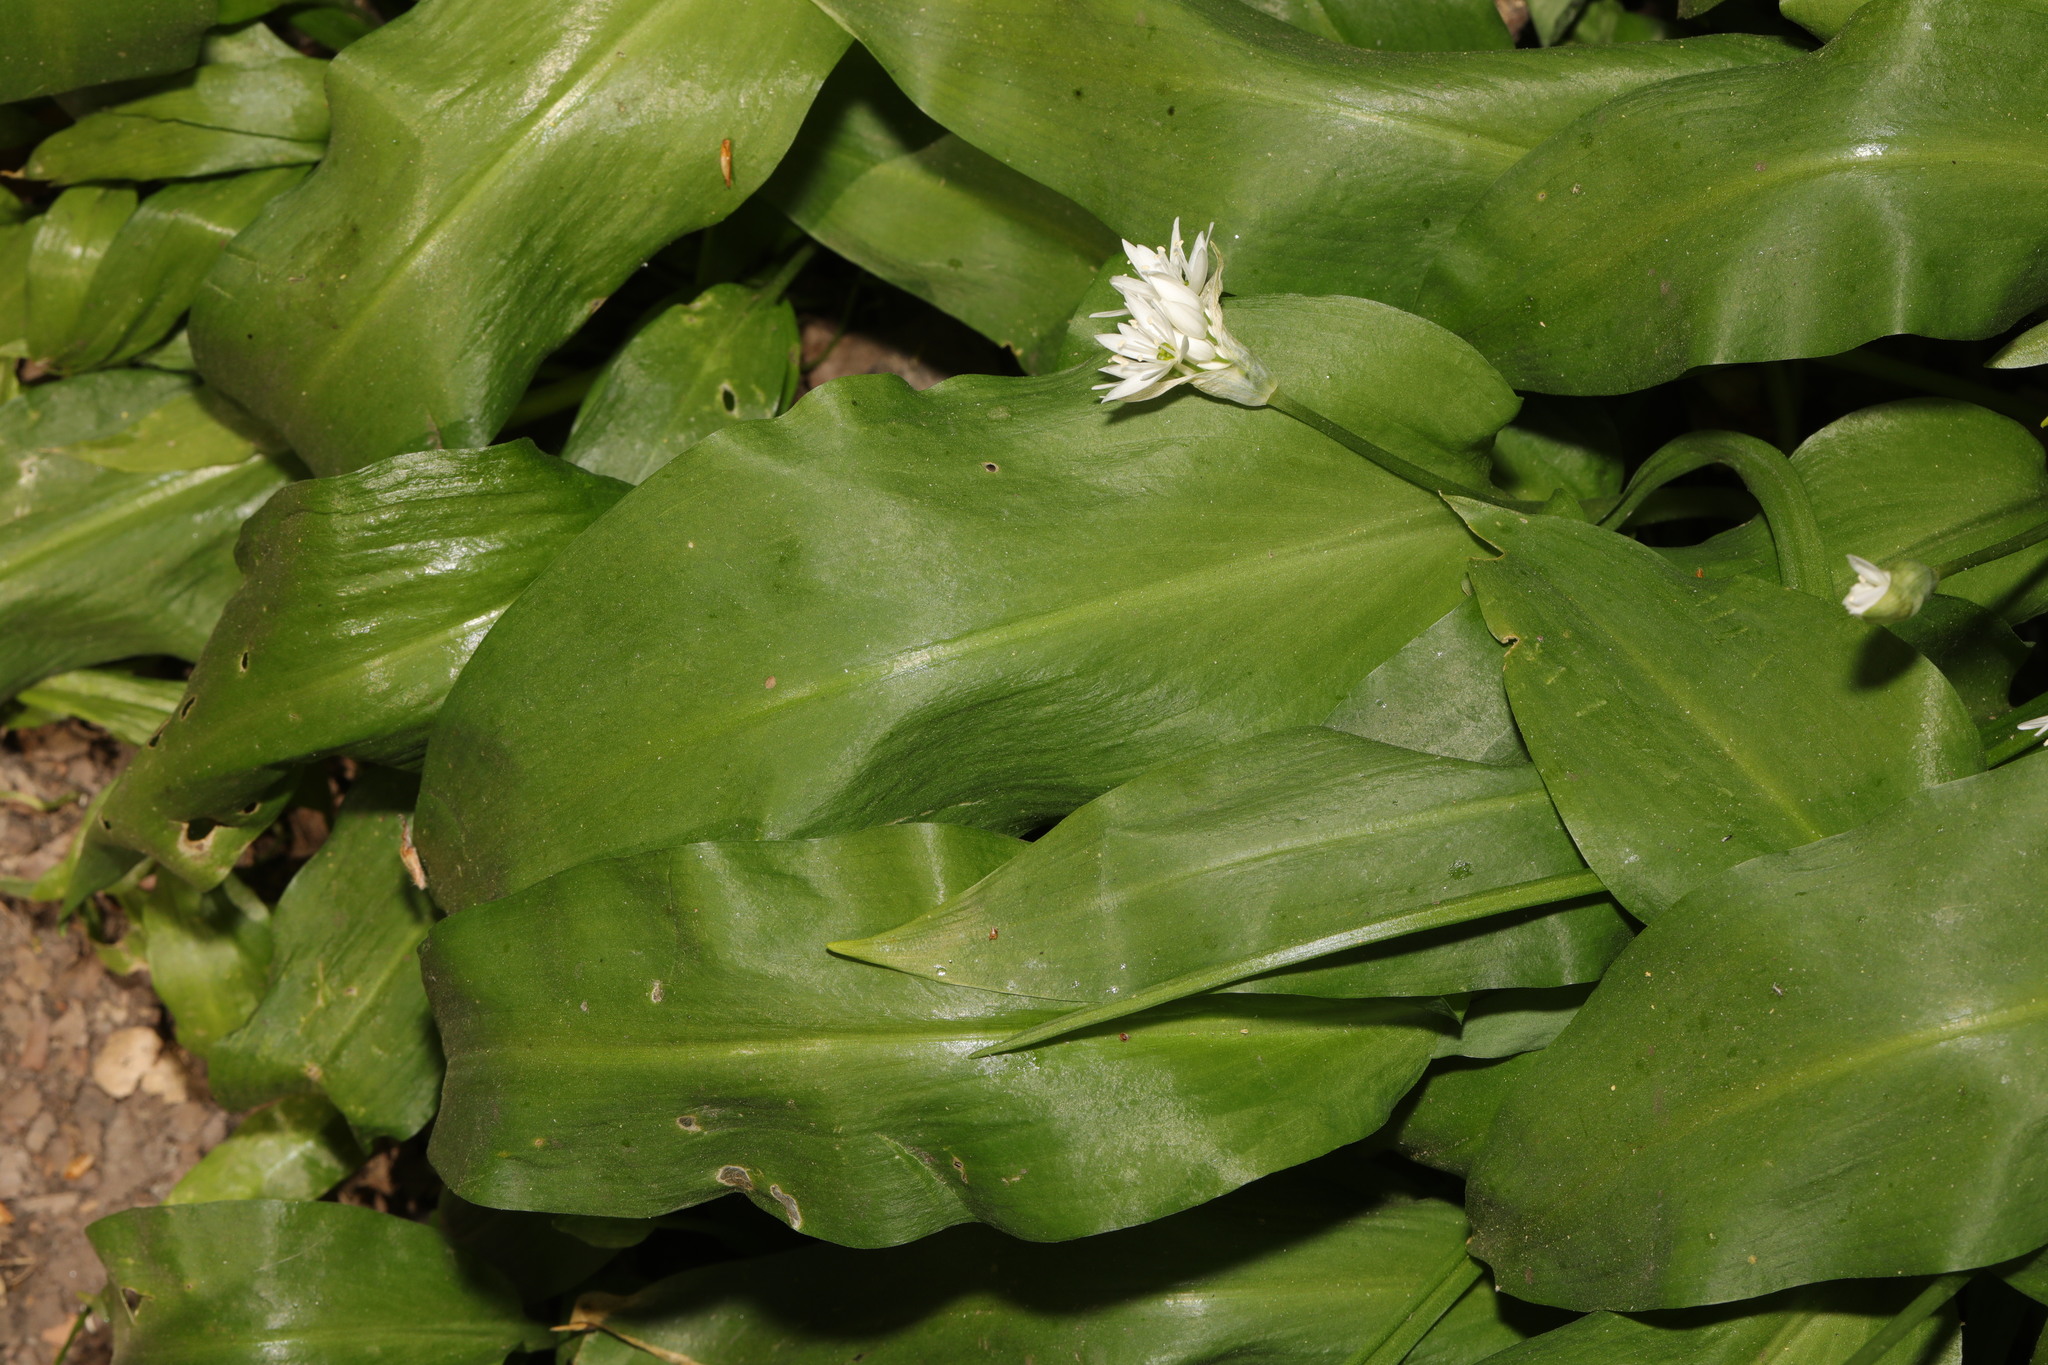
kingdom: Plantae
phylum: Tracheophyta
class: Liliopsida
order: Asparagales
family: Amaryllidaceae
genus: Allium
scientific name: Allium ursinum
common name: Ramsons
